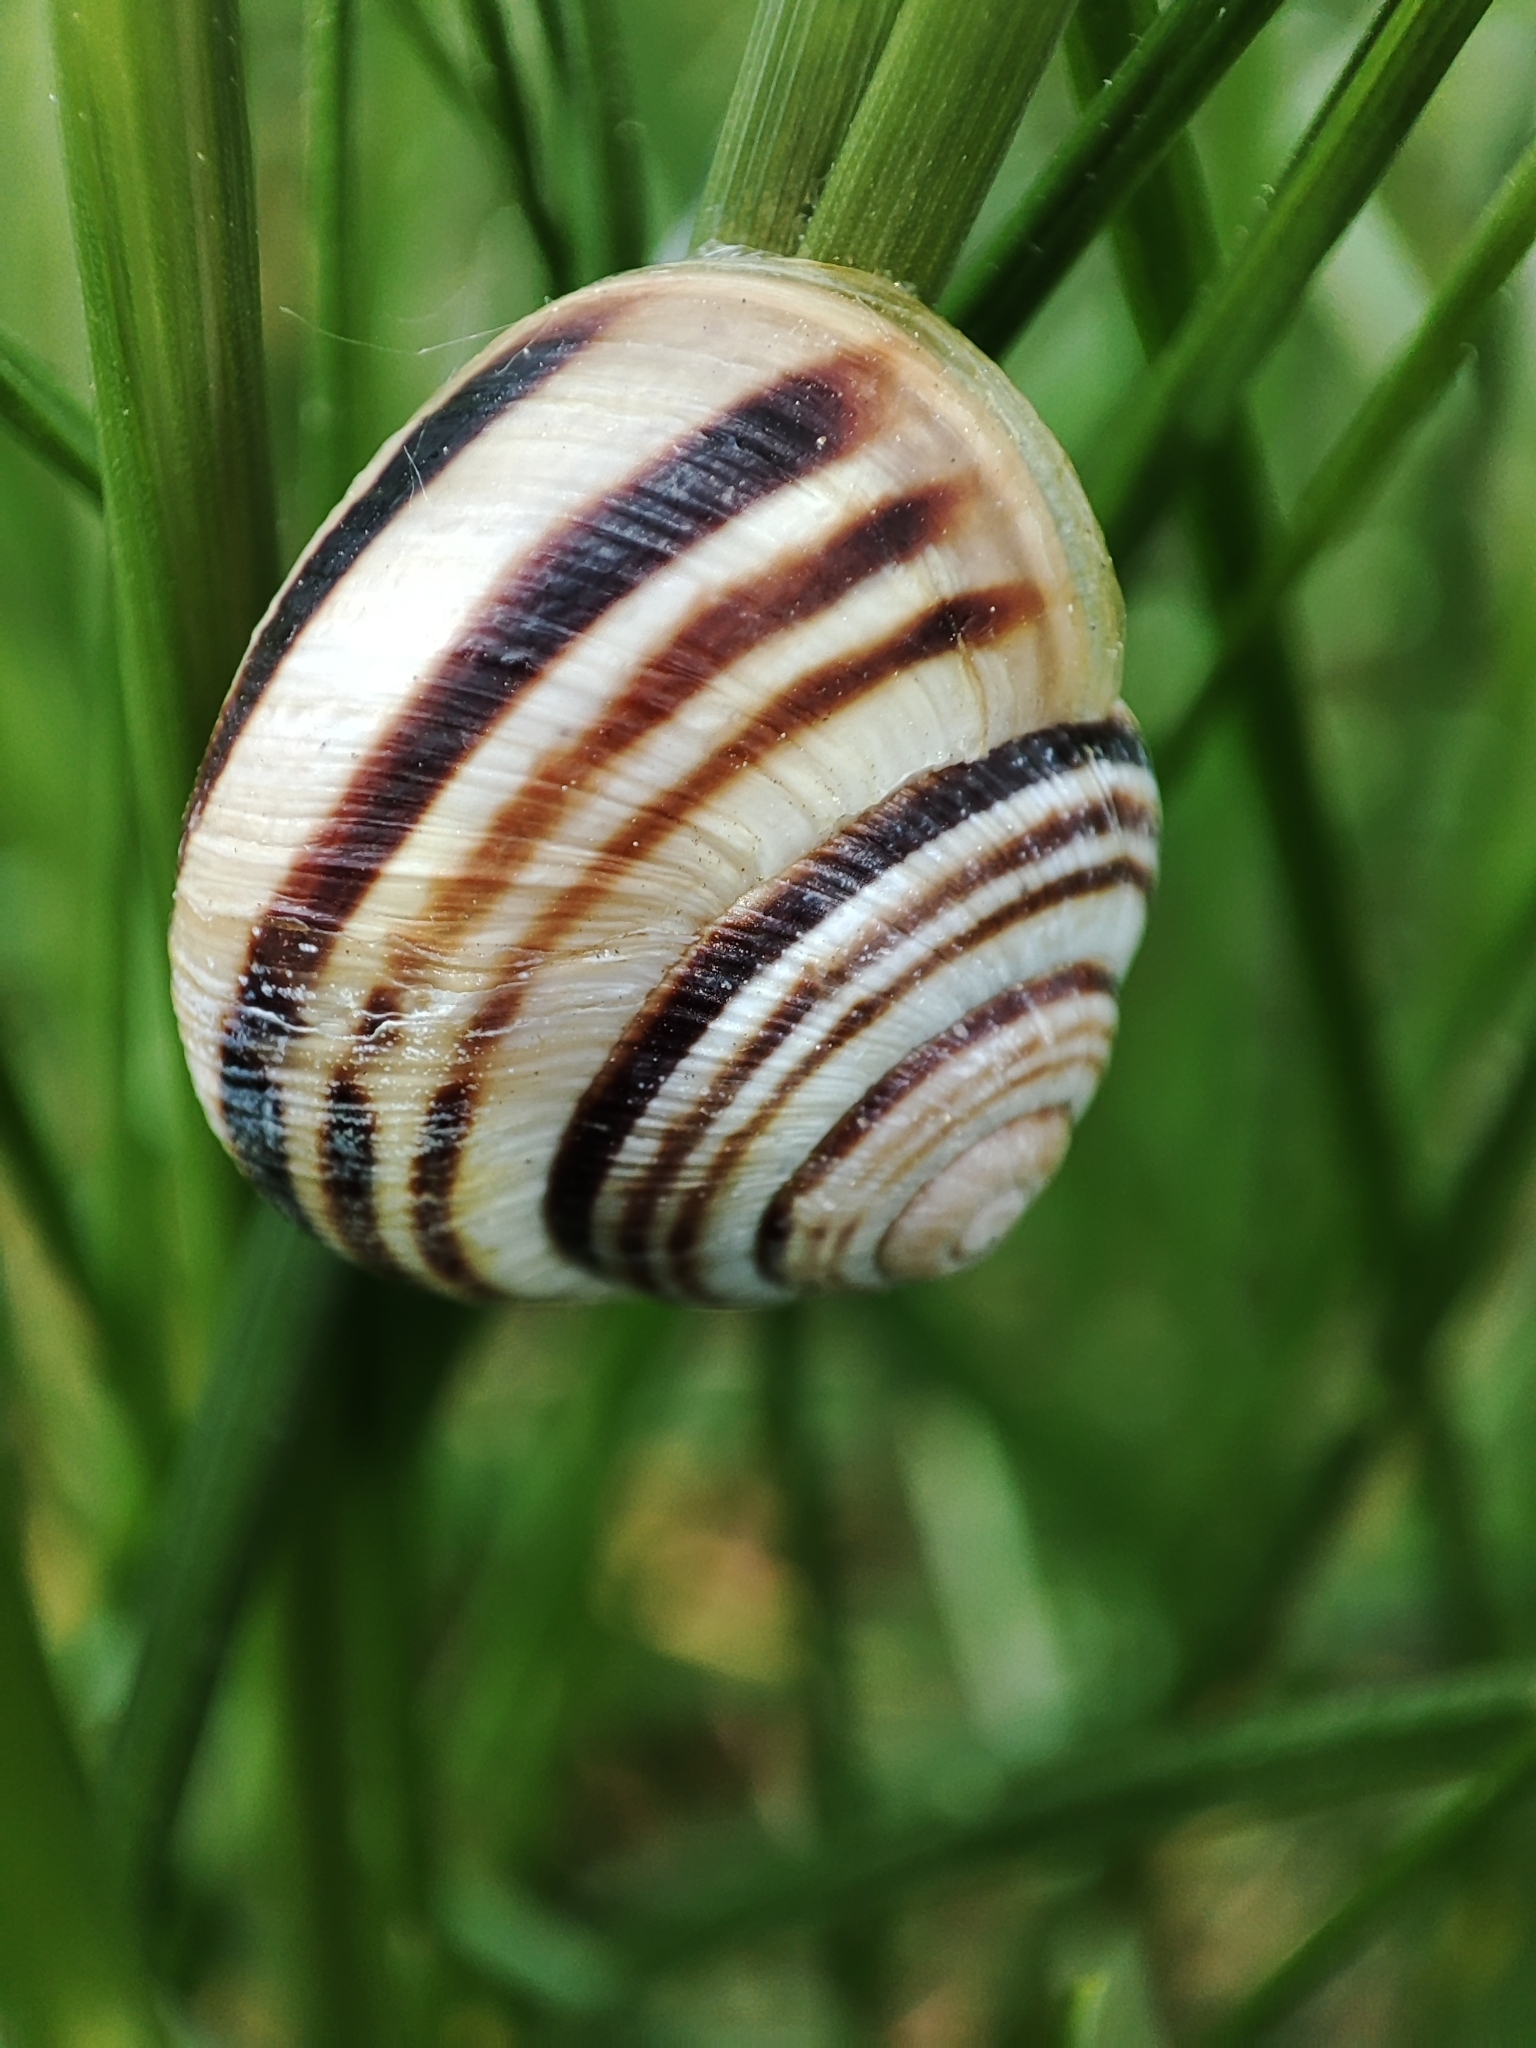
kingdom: Animalia
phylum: Mollusca
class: Gastropoda
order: Stylommatophora
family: Helicidae
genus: Caucasotachea
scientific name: Caucasotachea vindobonensis
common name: European helicid land snail
